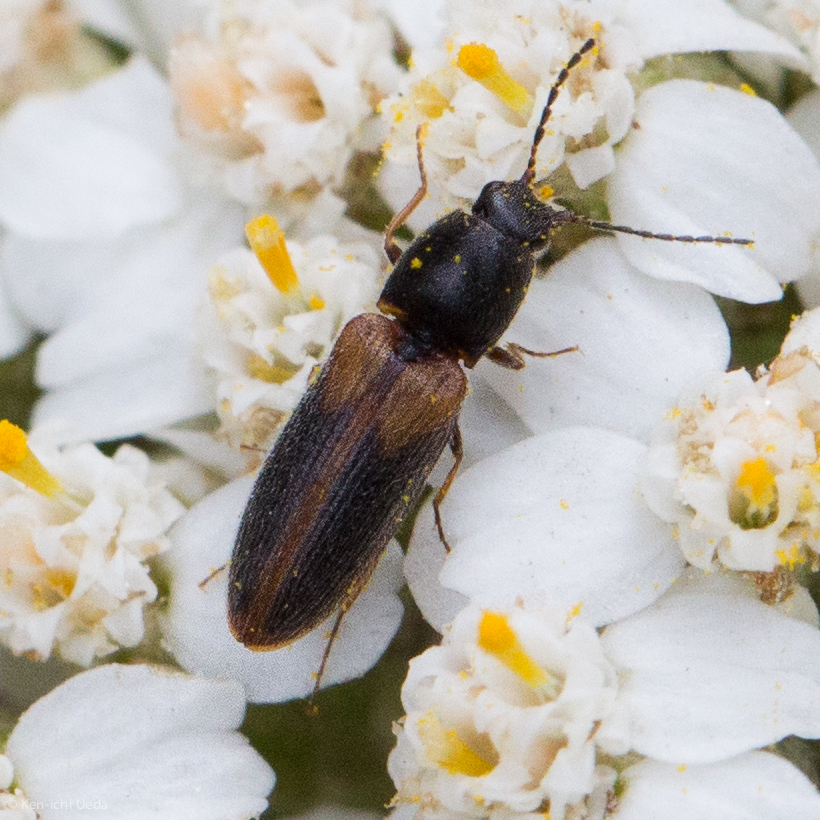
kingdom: Animalia
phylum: Arthropoda
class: Insecta
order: Coleoptera
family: Elateridae
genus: Tetralimonius
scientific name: Tetralimonius
